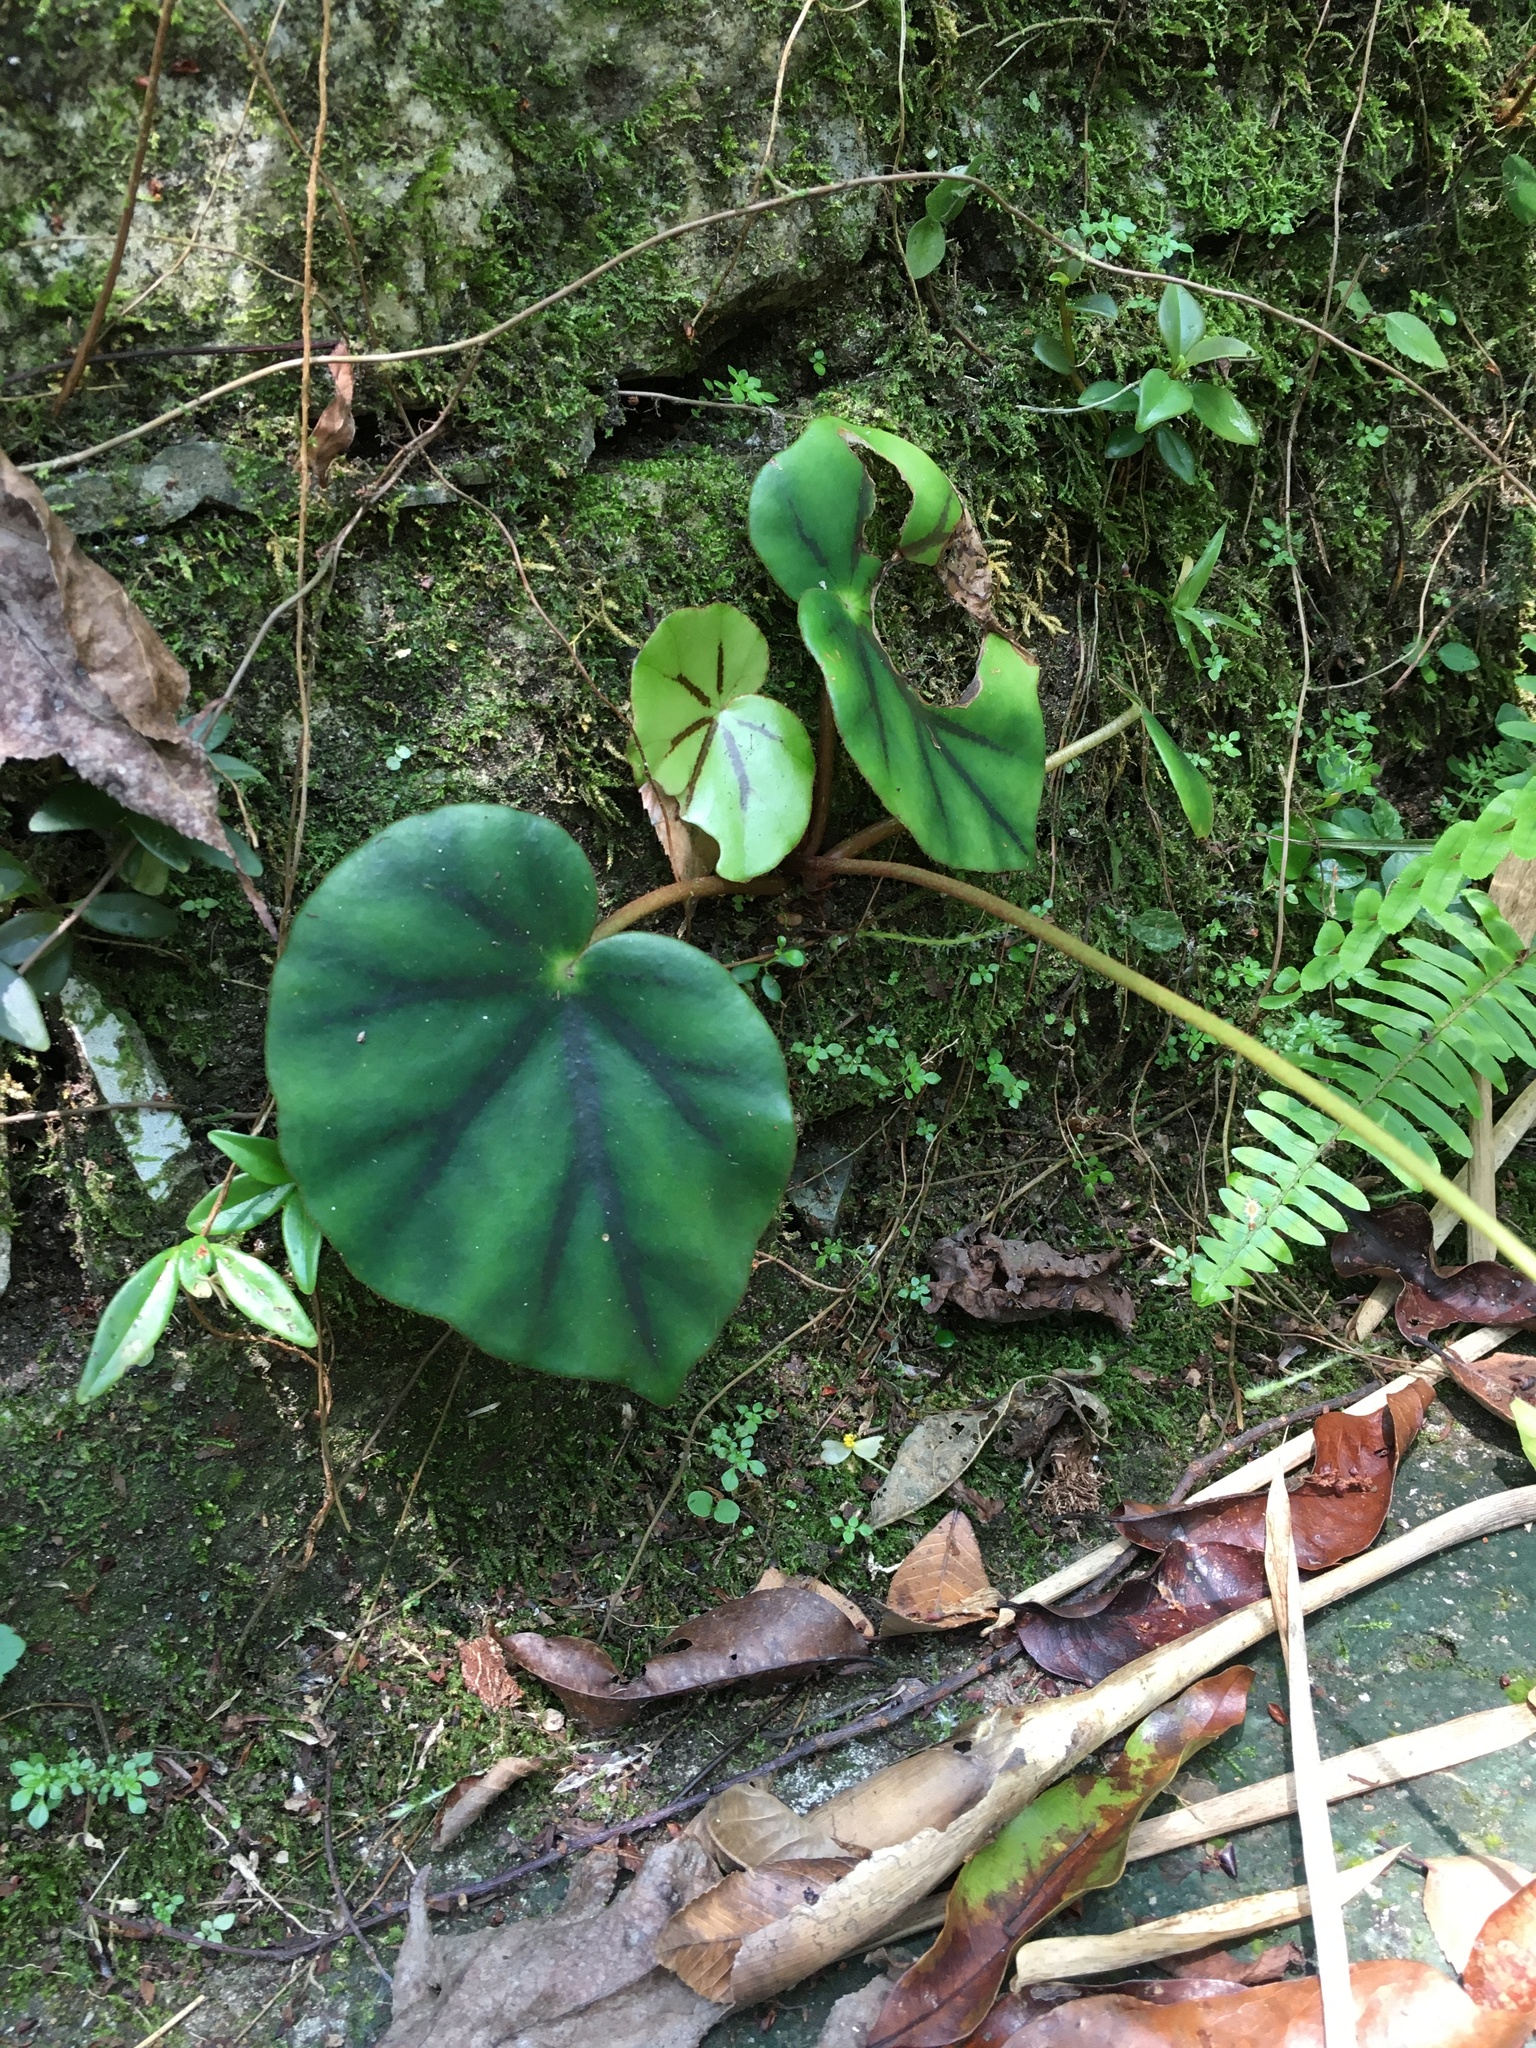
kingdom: Plantae
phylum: Tracheophyta
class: Magnoliopsida
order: Cucurbitales
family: Begoniaceae
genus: Begonia
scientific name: Begonia glandulosa
